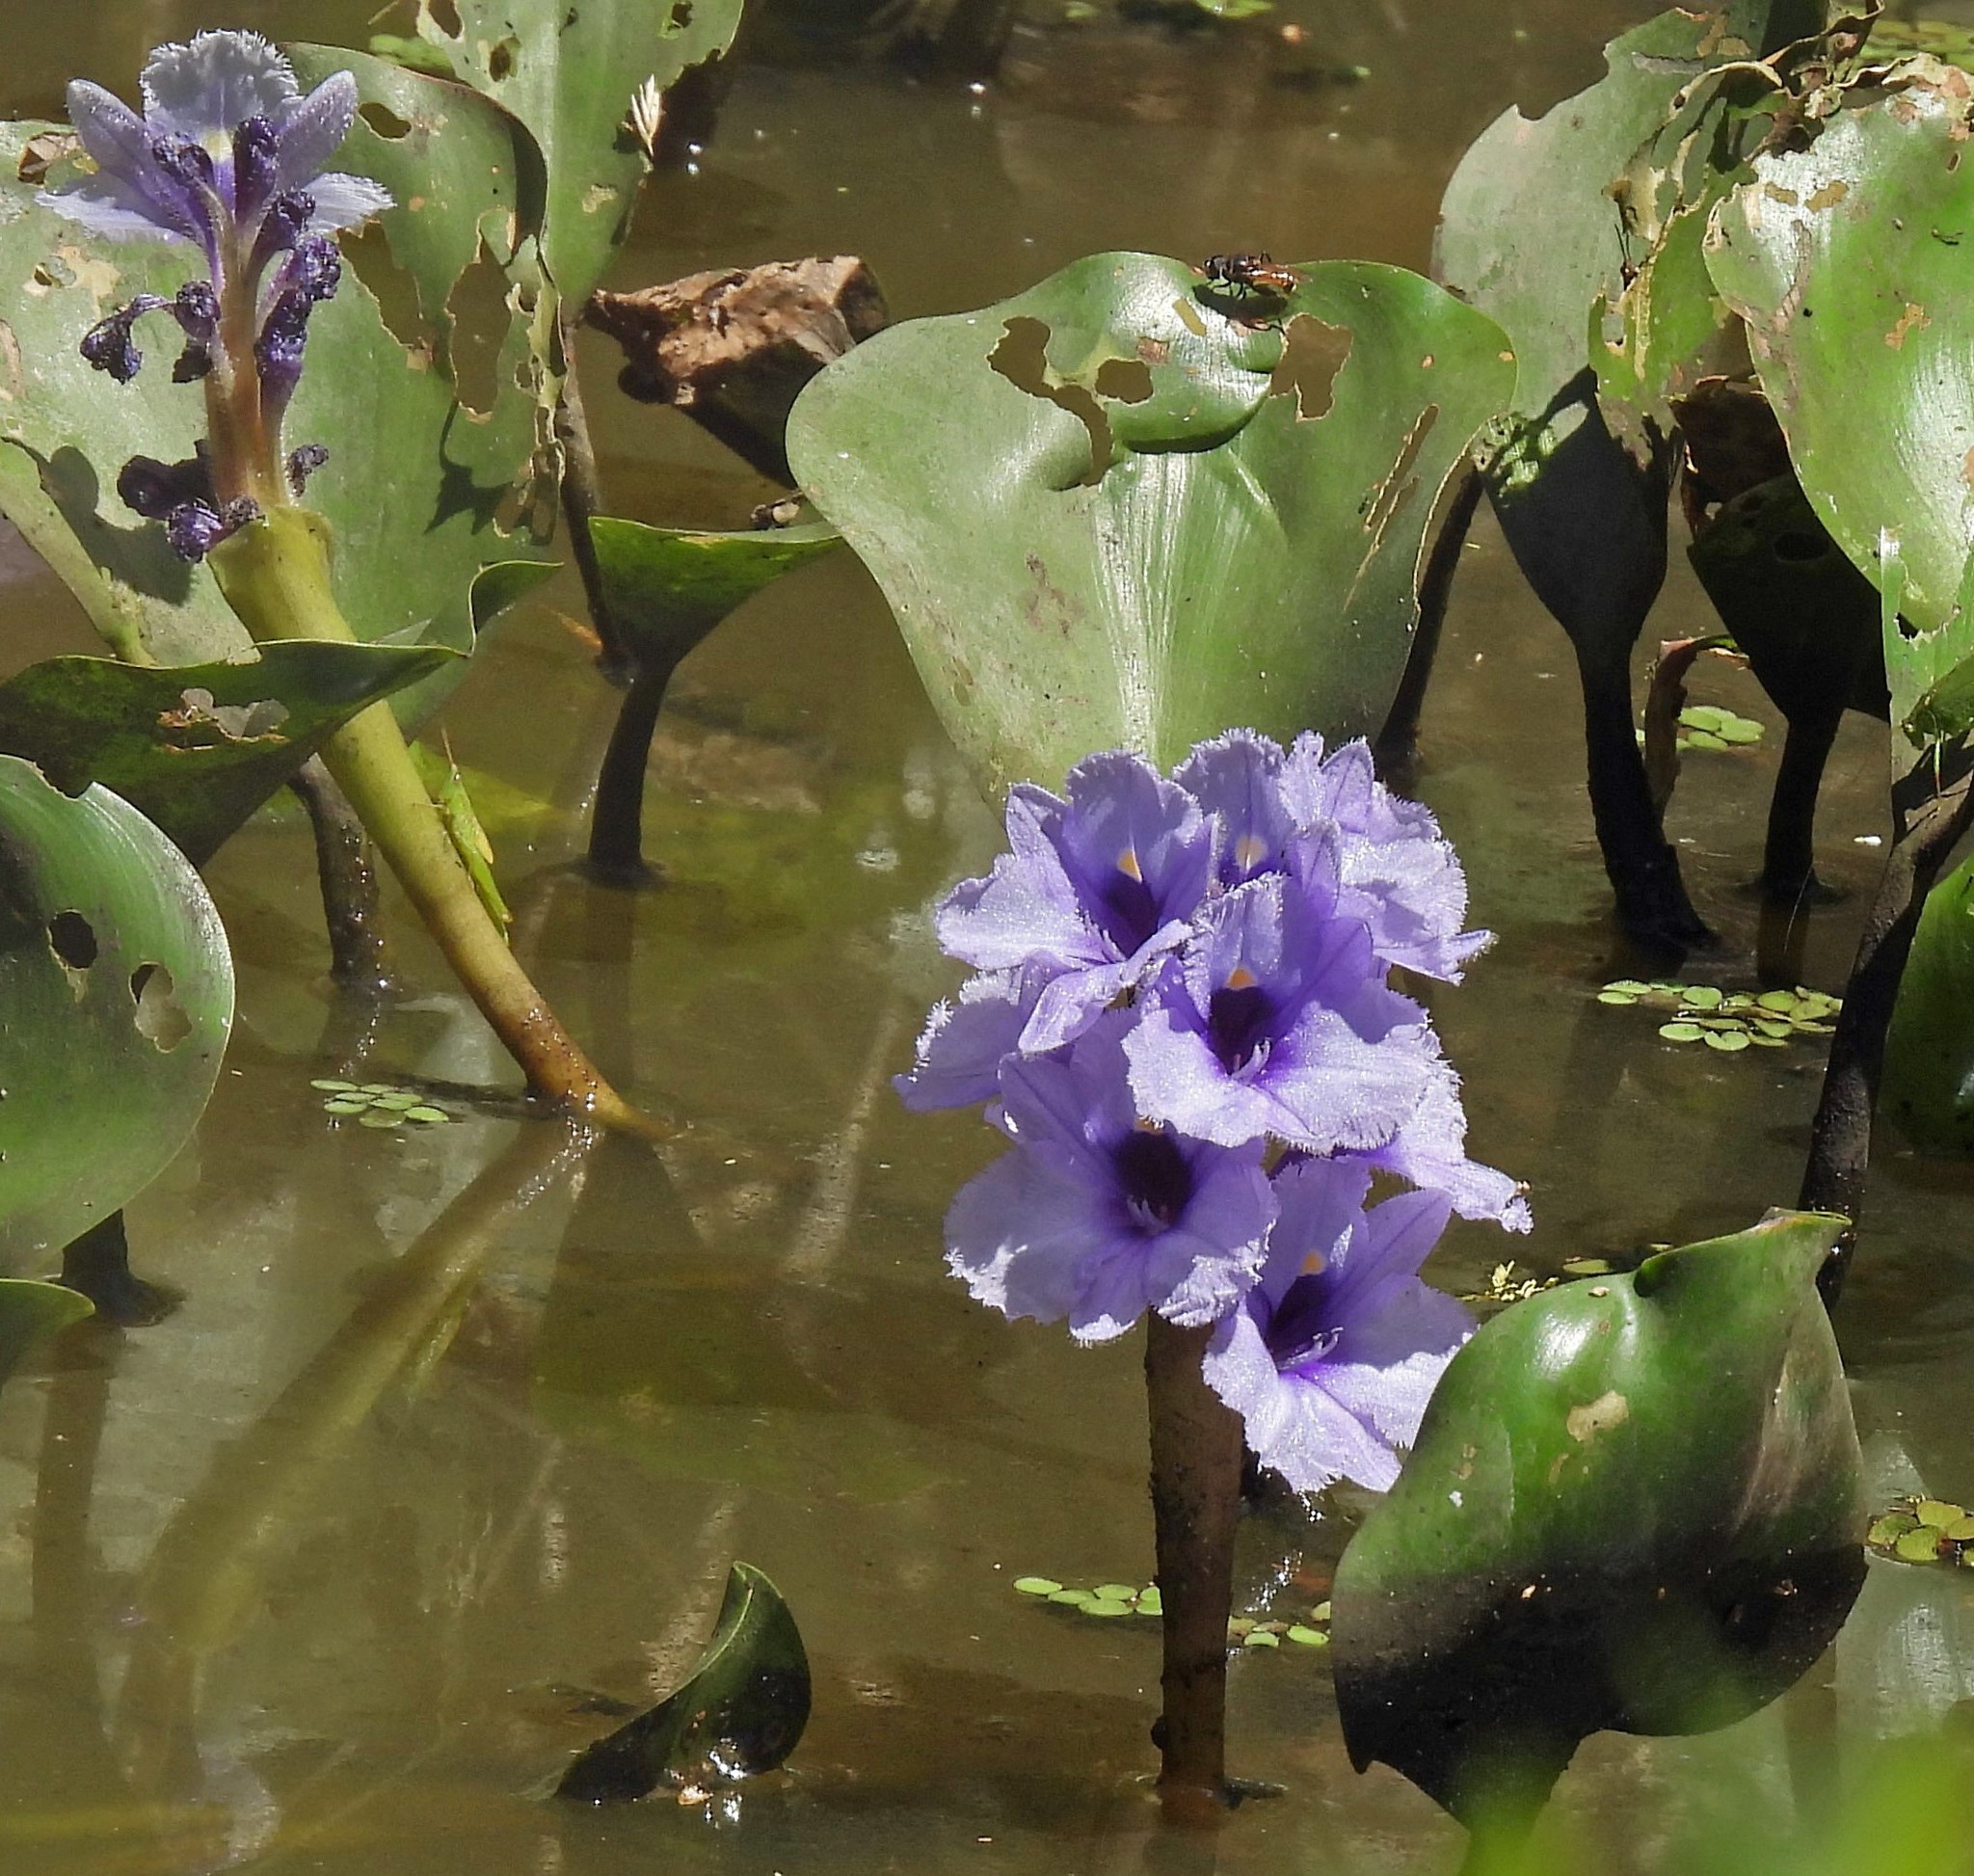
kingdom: Plantae
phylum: Tracheophyta
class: Liliopsida
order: Commelinales
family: Pontederiaceae
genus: Pontederia
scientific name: Pontederia azurea
